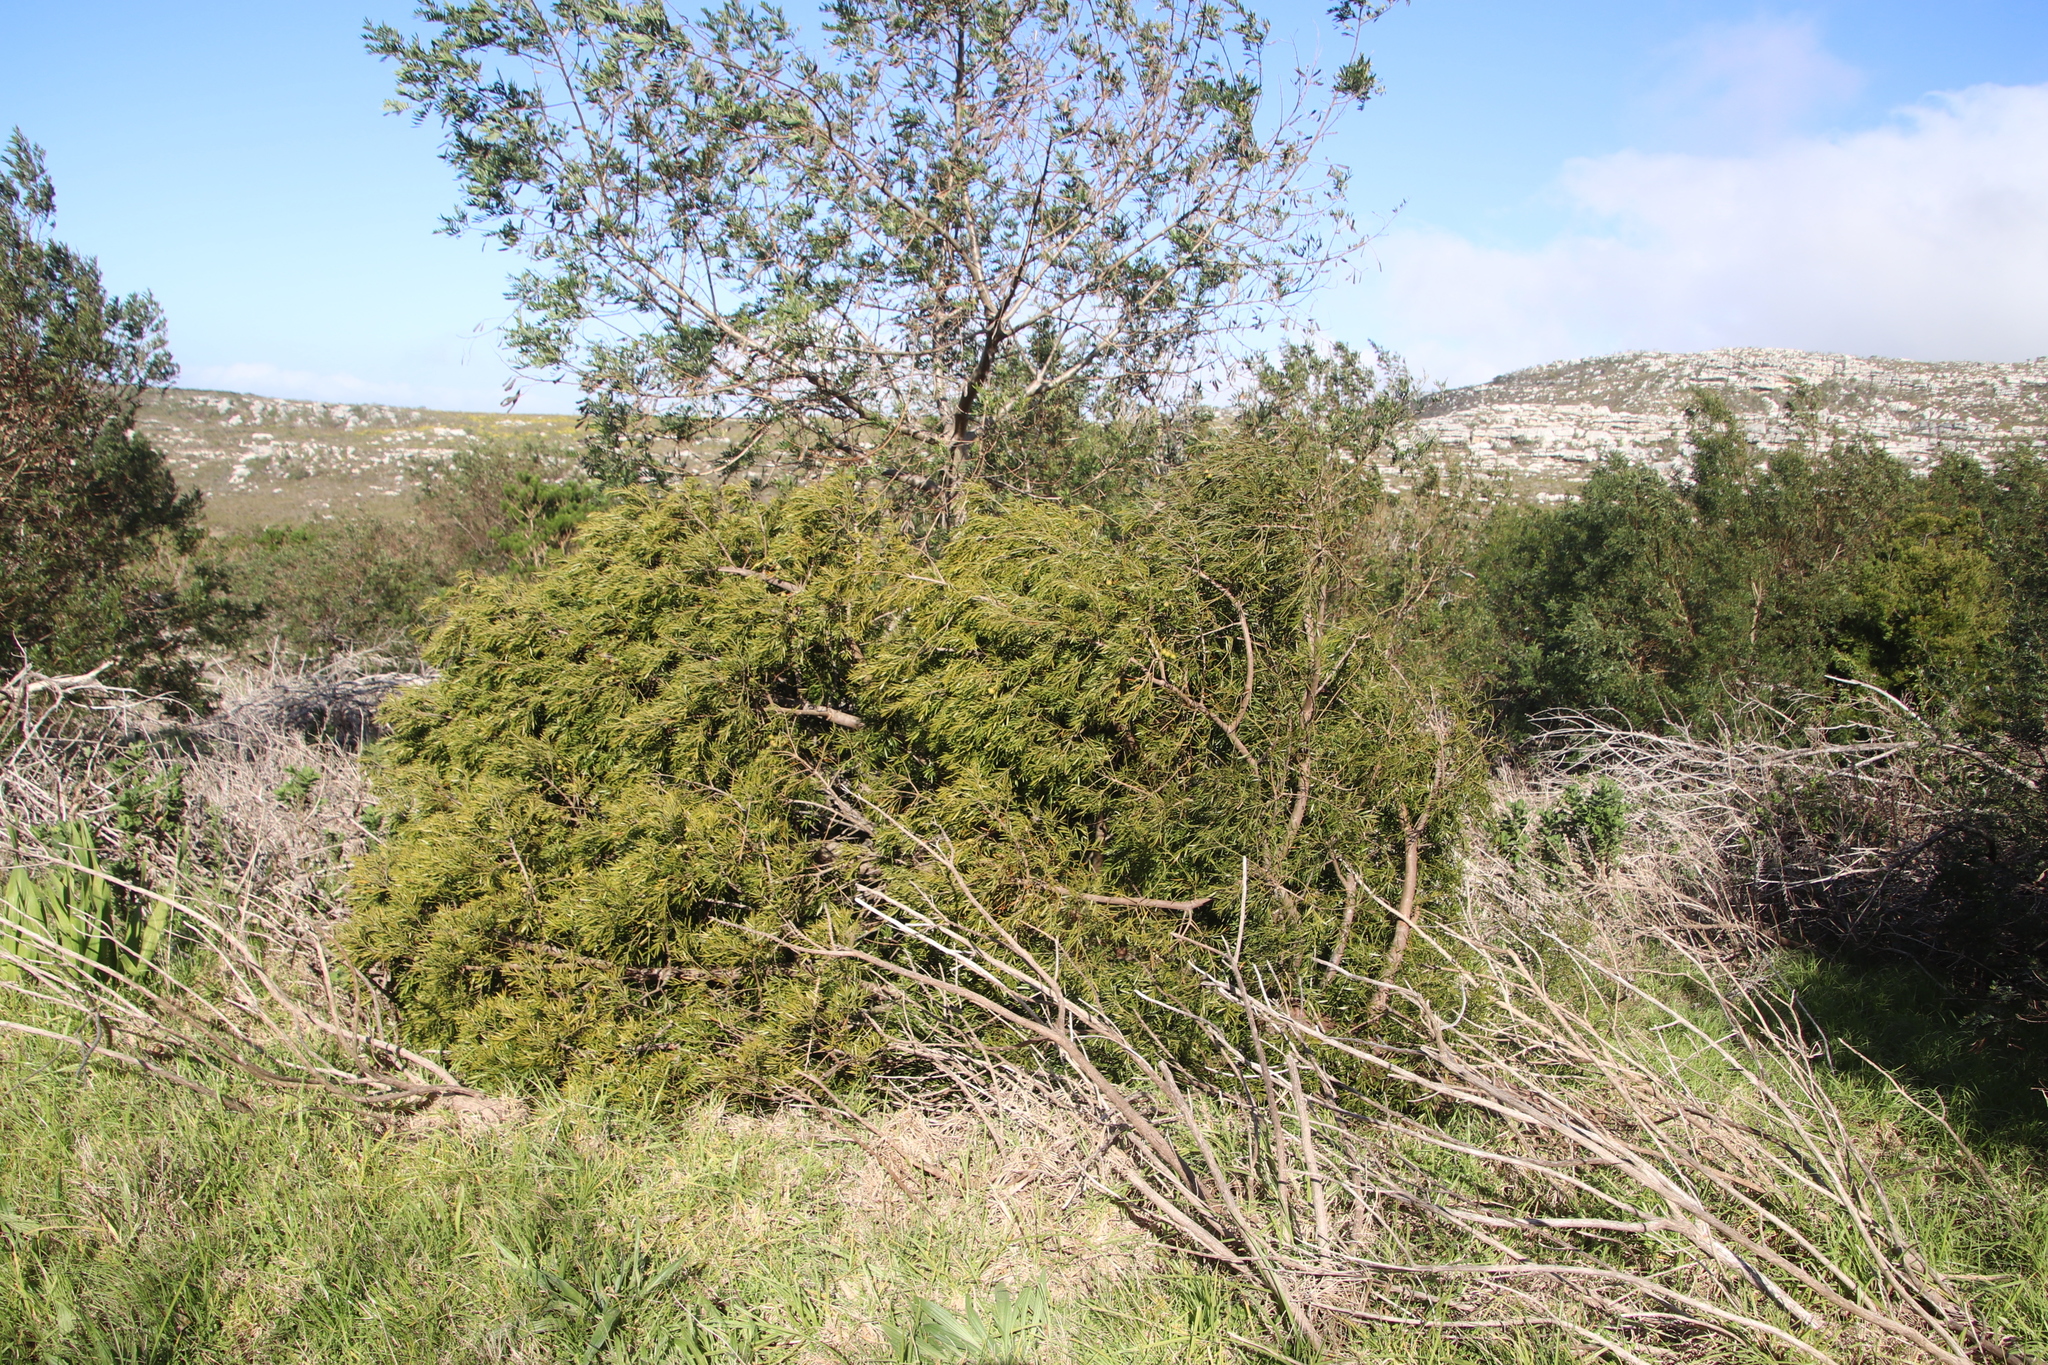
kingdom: Plantae
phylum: Tracheophyta
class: Pinopsida
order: Pinales
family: Podocarpaceae
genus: Afrocarpus
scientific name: Afrocarpus falcatus
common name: Bastard yellowwood
